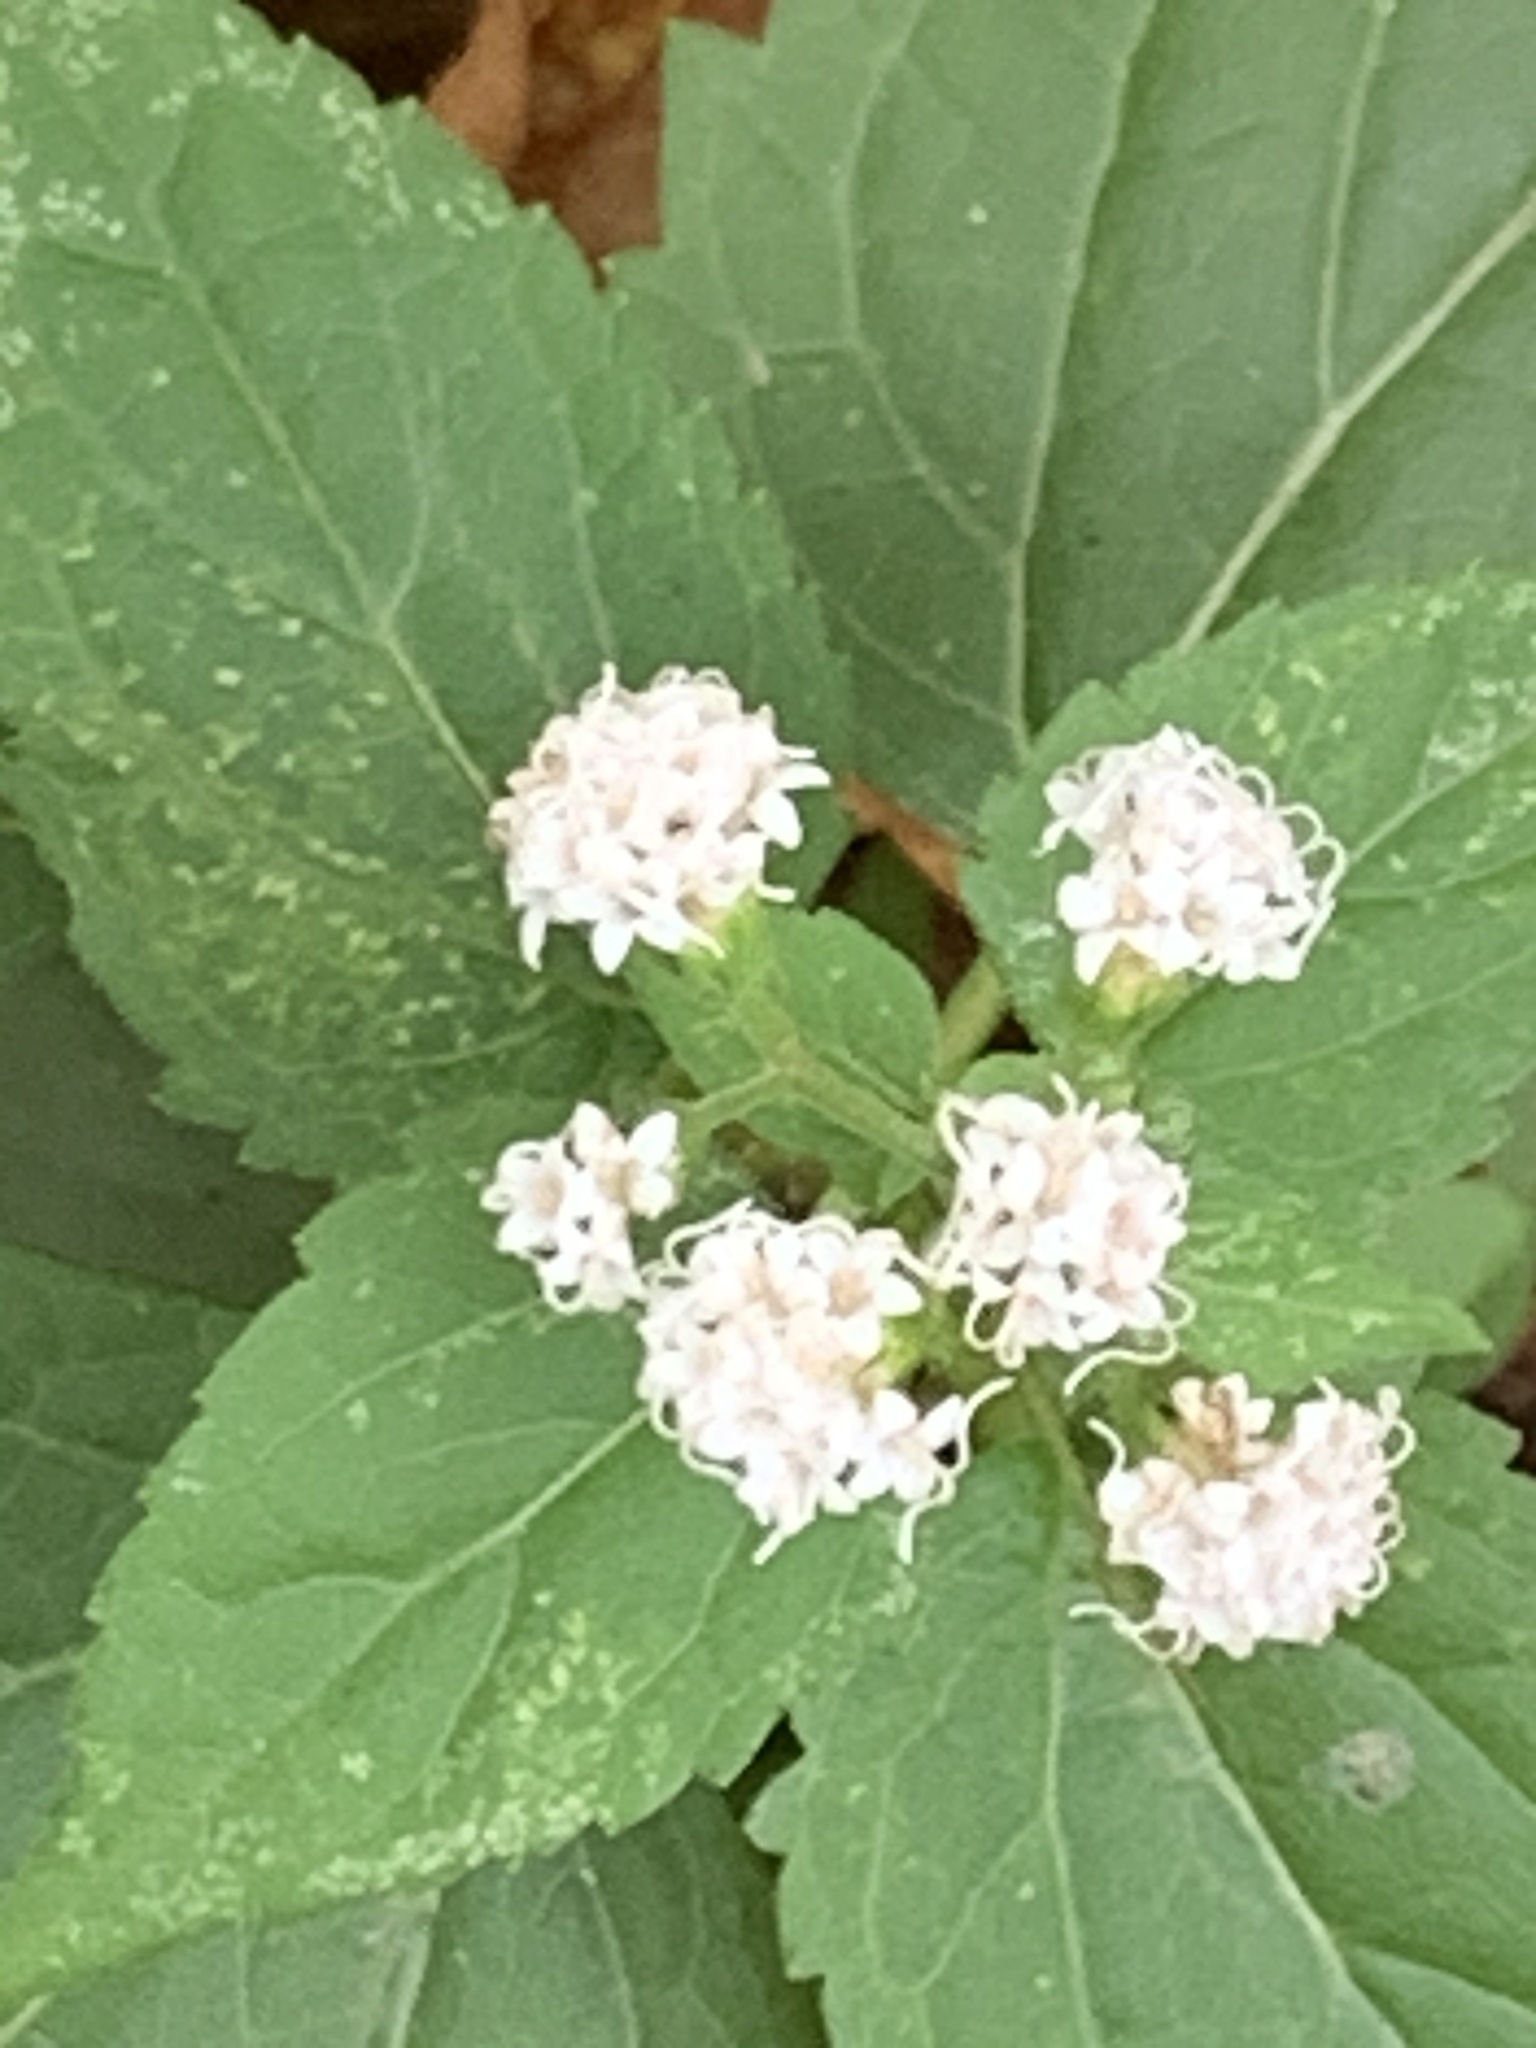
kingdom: Plantae
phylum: Tracheophyta
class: Magnoliopsida
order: Asterales
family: Asteraceae
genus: Ageratina
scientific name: Ageratina altissima
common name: White snakeroot
